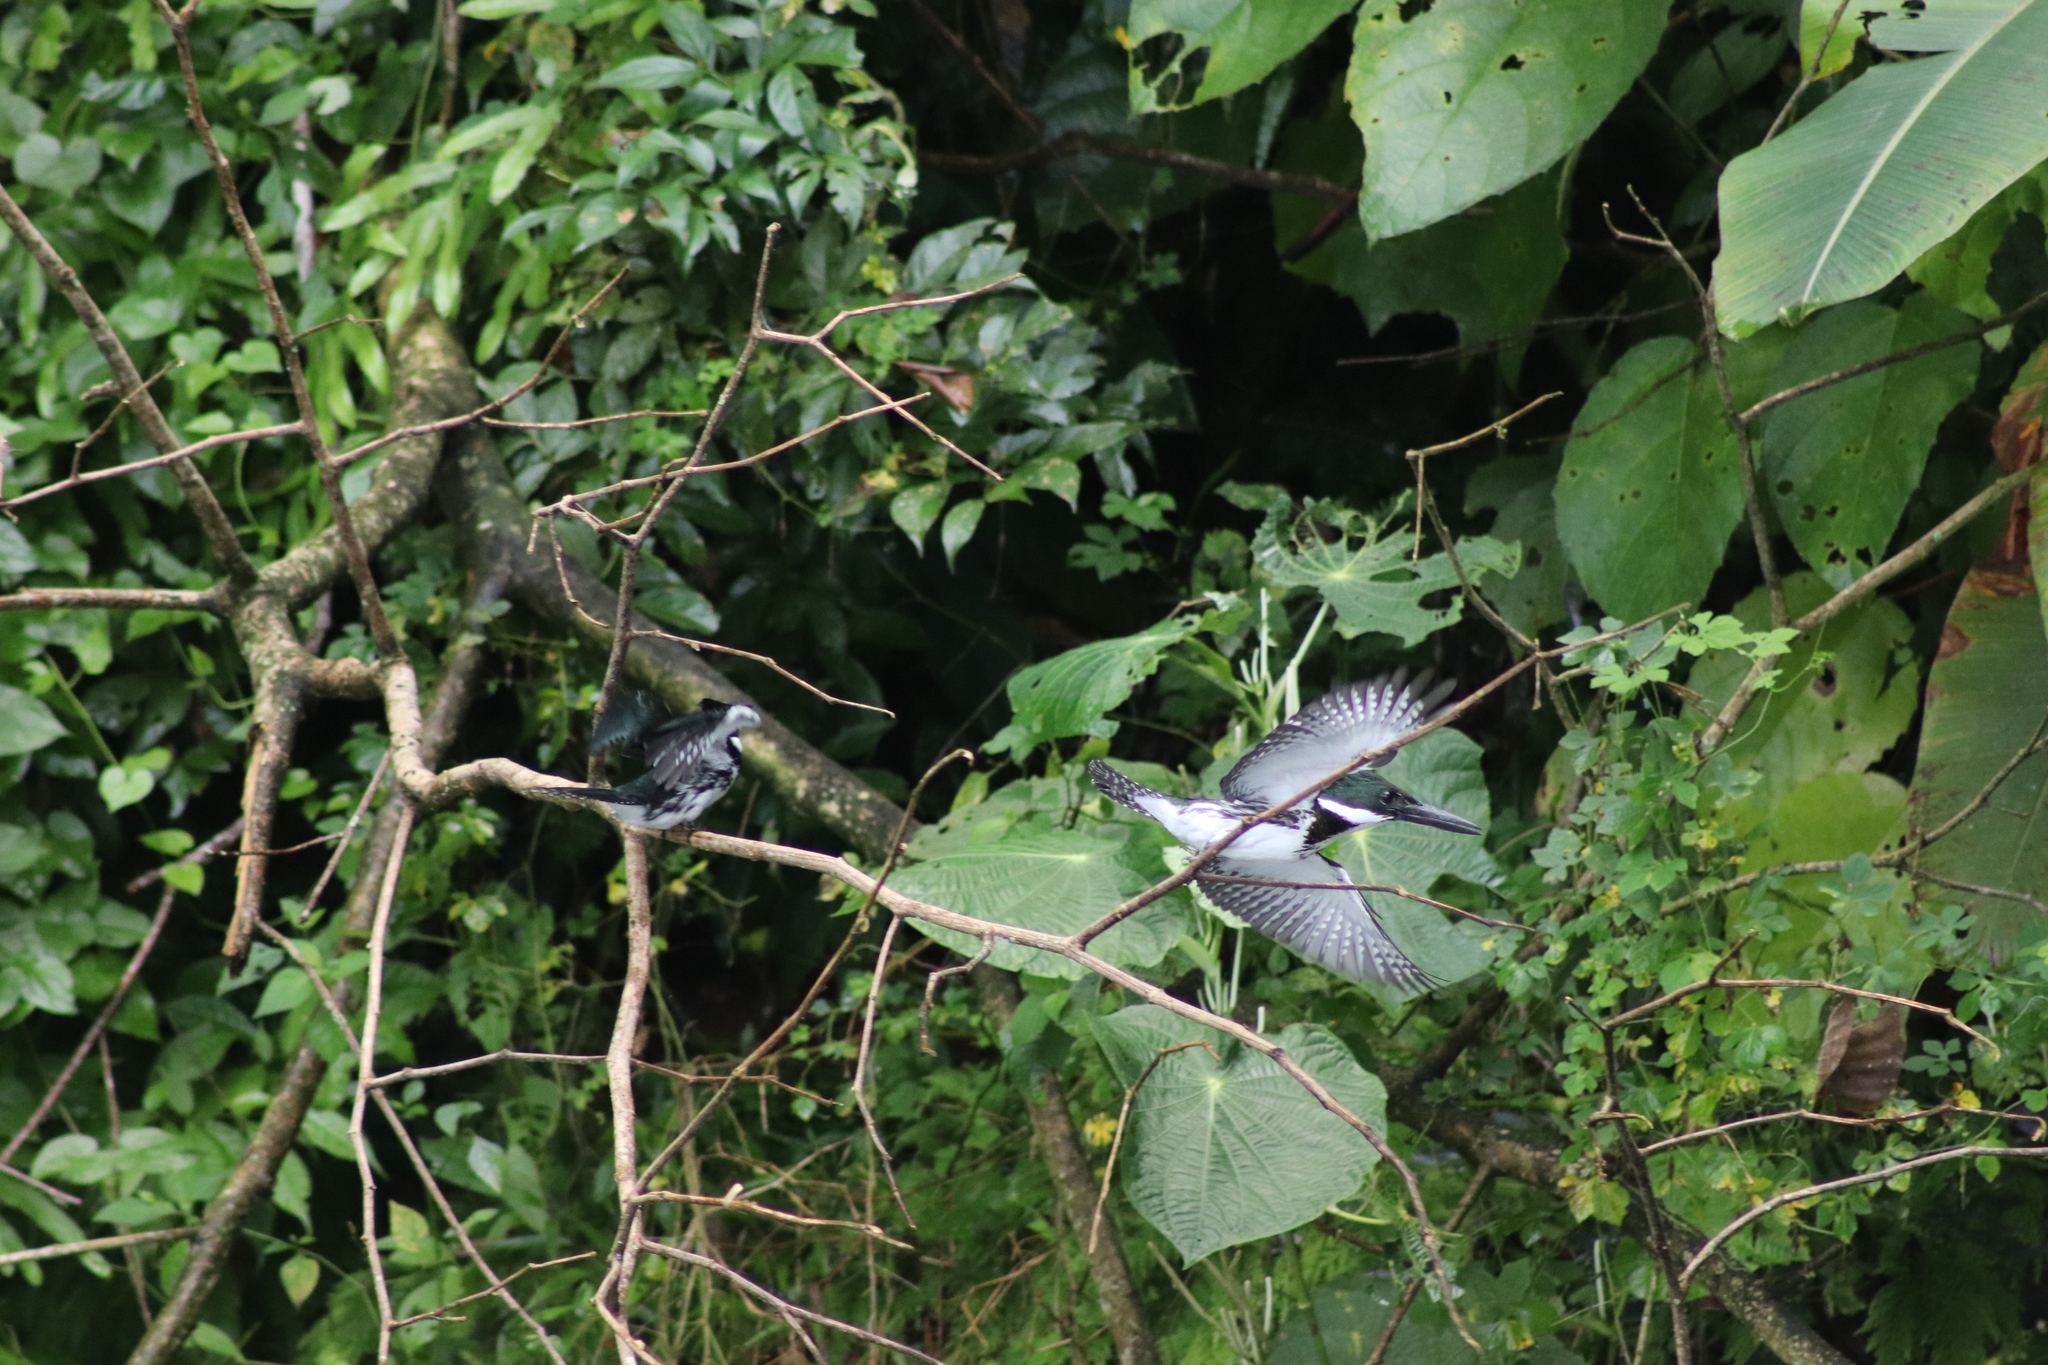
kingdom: Animalia
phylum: Chordata
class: Aves
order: Coraciiformes
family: Alcedinidae
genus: Chloroceryle
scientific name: Chloroceryle amazona
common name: Amazon kingfisher
